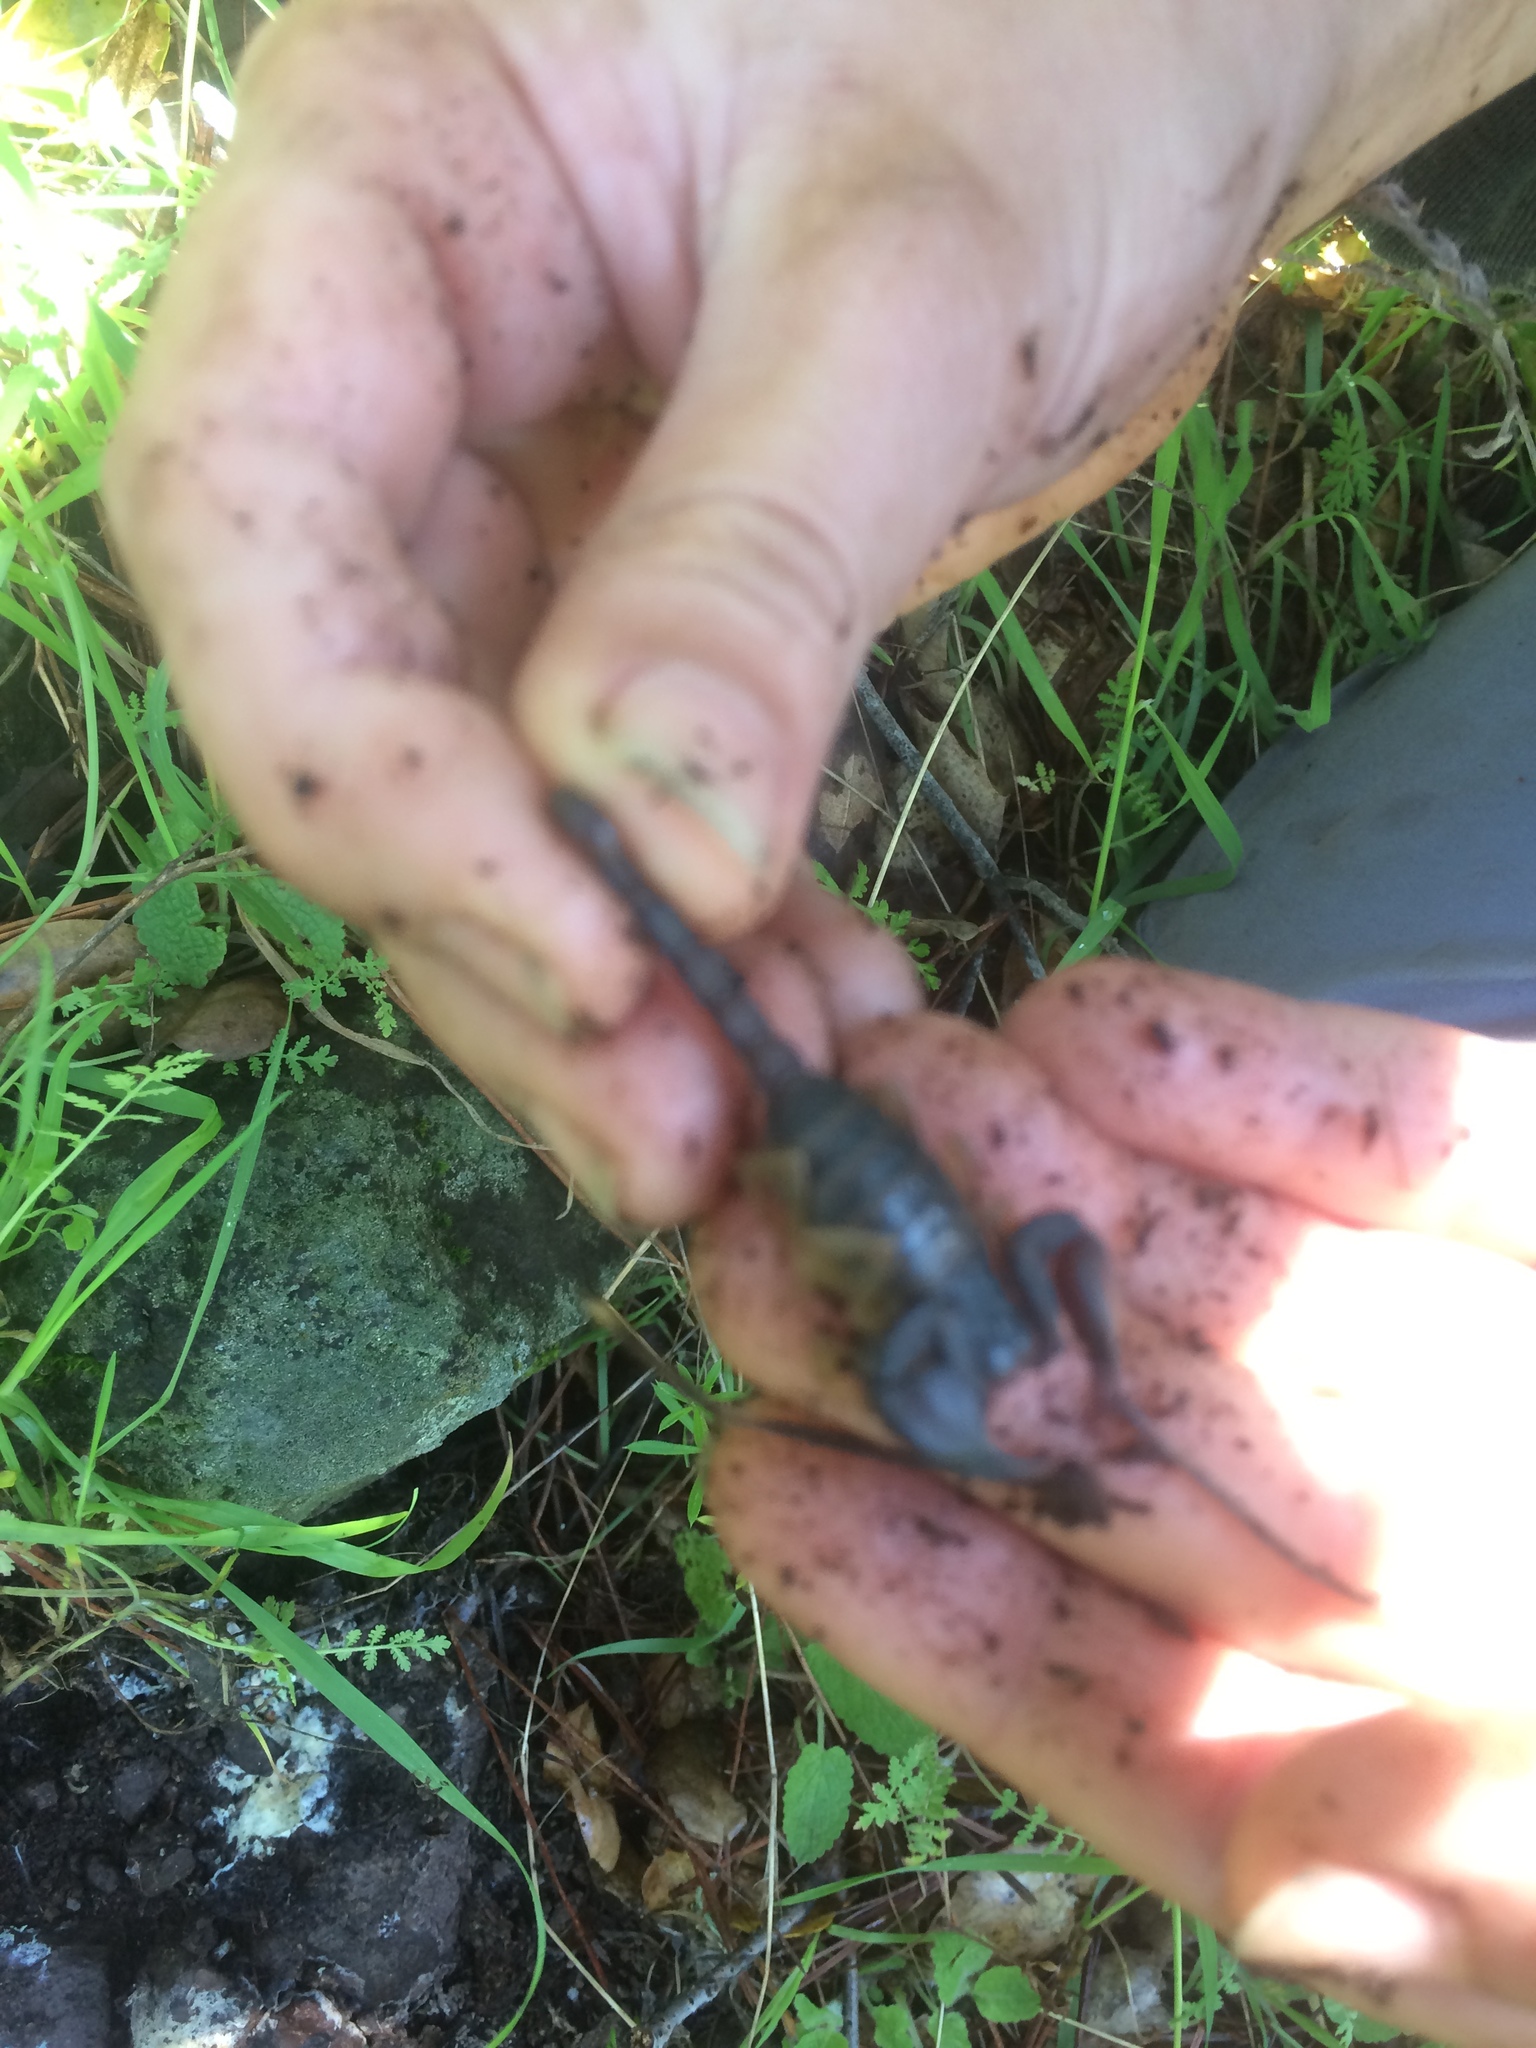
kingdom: Animalia
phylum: Arthropoda
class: Arachnida
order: Scorpiones
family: Chactidae
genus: Uroctonus
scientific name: Uroctonus mordax
